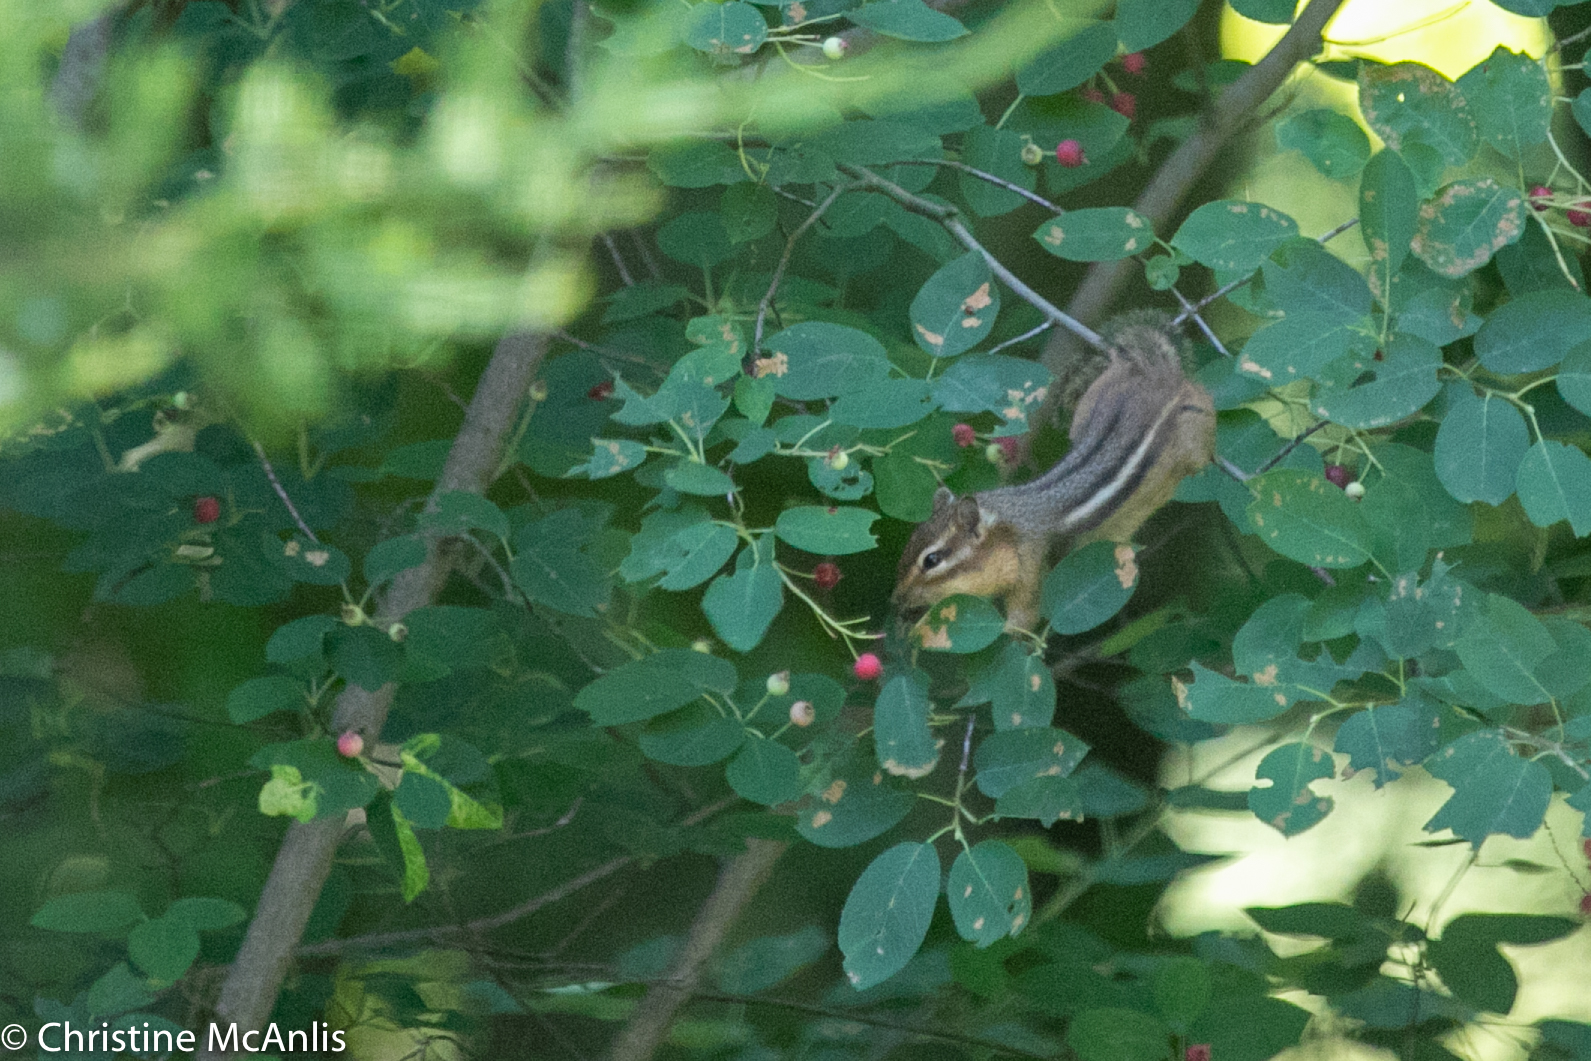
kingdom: Animalia
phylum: Chordata
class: Mammalia
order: Rodentia
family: Sciuridae
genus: Tamias
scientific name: Tamias striatus
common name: Eastern chipmunk
